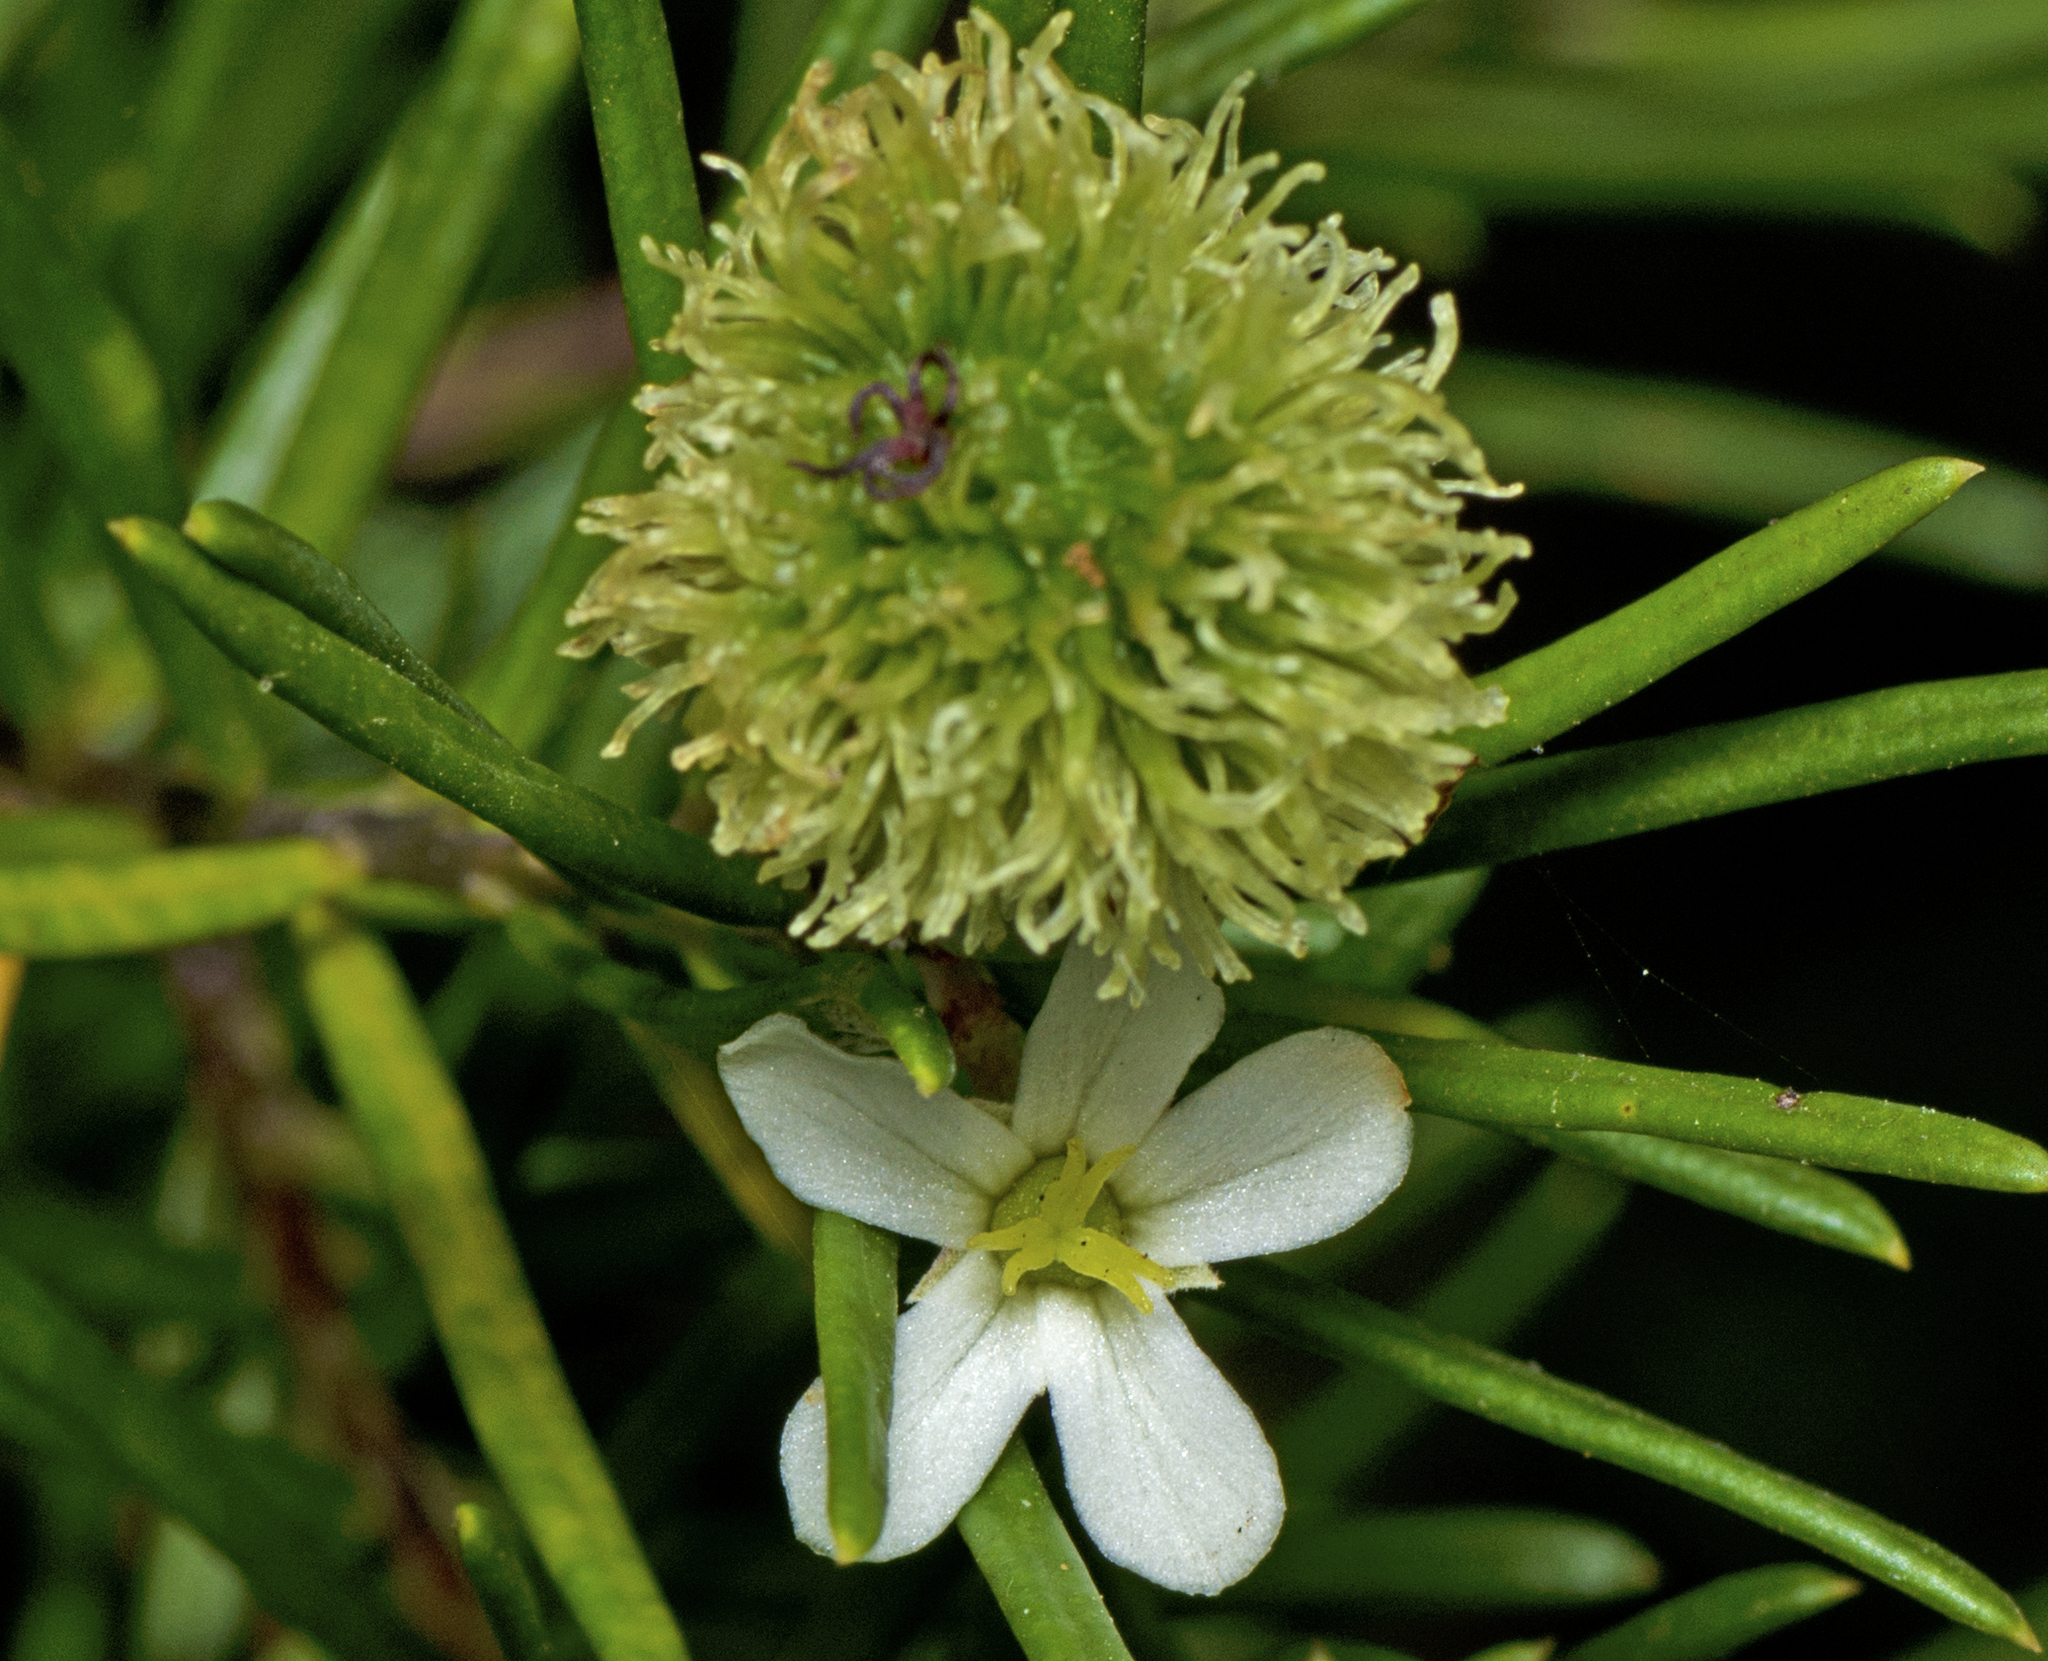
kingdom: Plantae
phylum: Tracheophyta
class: Magnoliopsida
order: Malpighiales
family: Euphorbiaceae
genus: Ricinocarpos
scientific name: Ricinocarpos pinifolius
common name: Weddingbush
